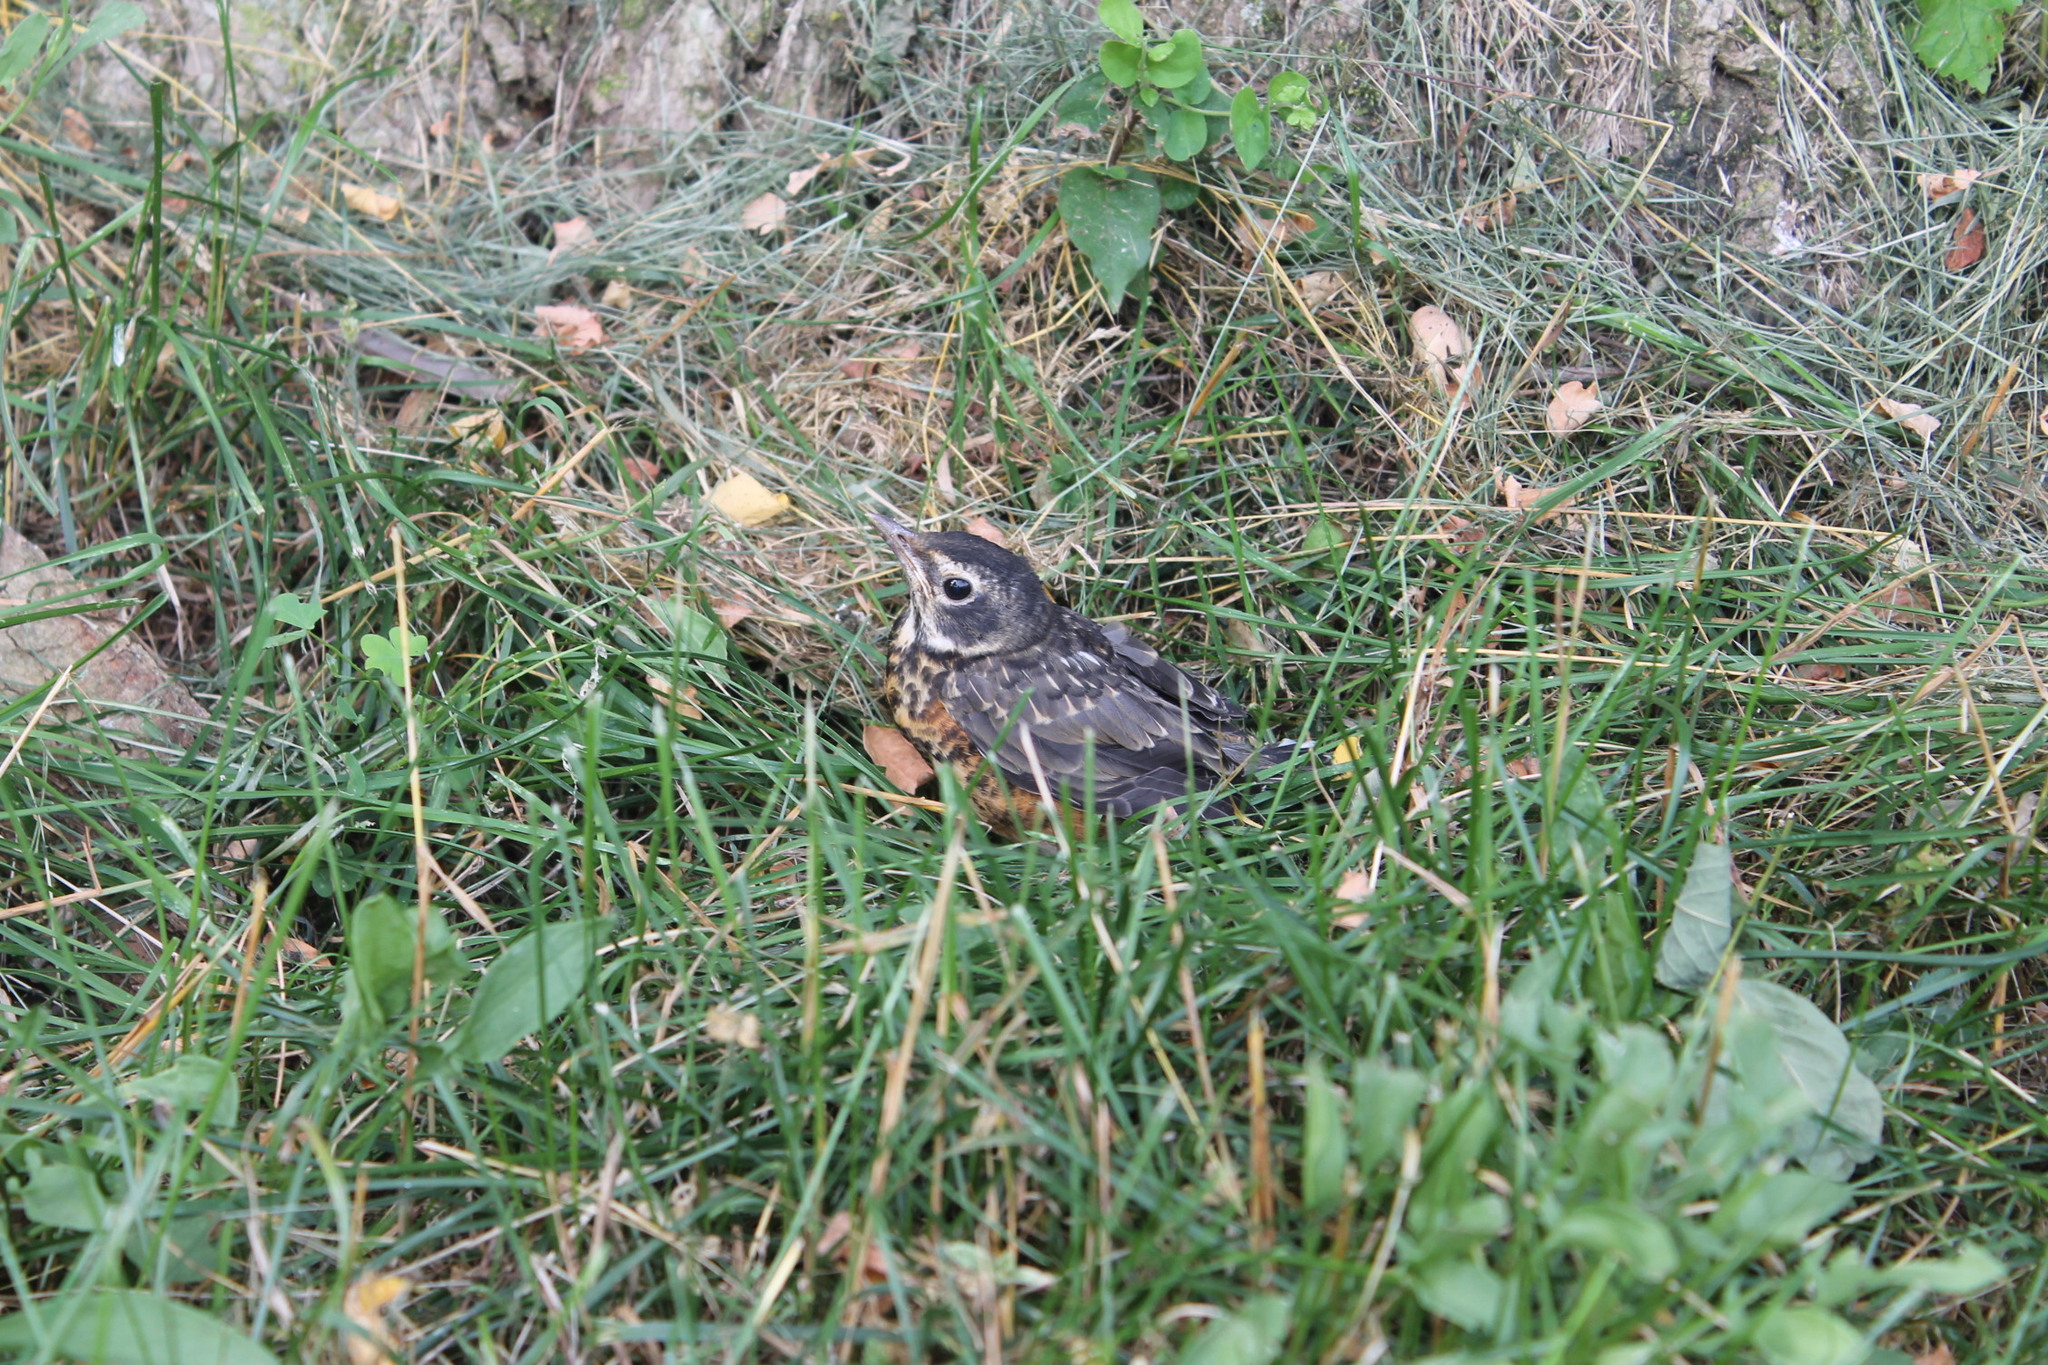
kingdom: Animalia
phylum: Chordata
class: Aves
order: Passeriformes
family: Turdidae
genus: Turdus
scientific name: Turdus migratorius
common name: American robin
